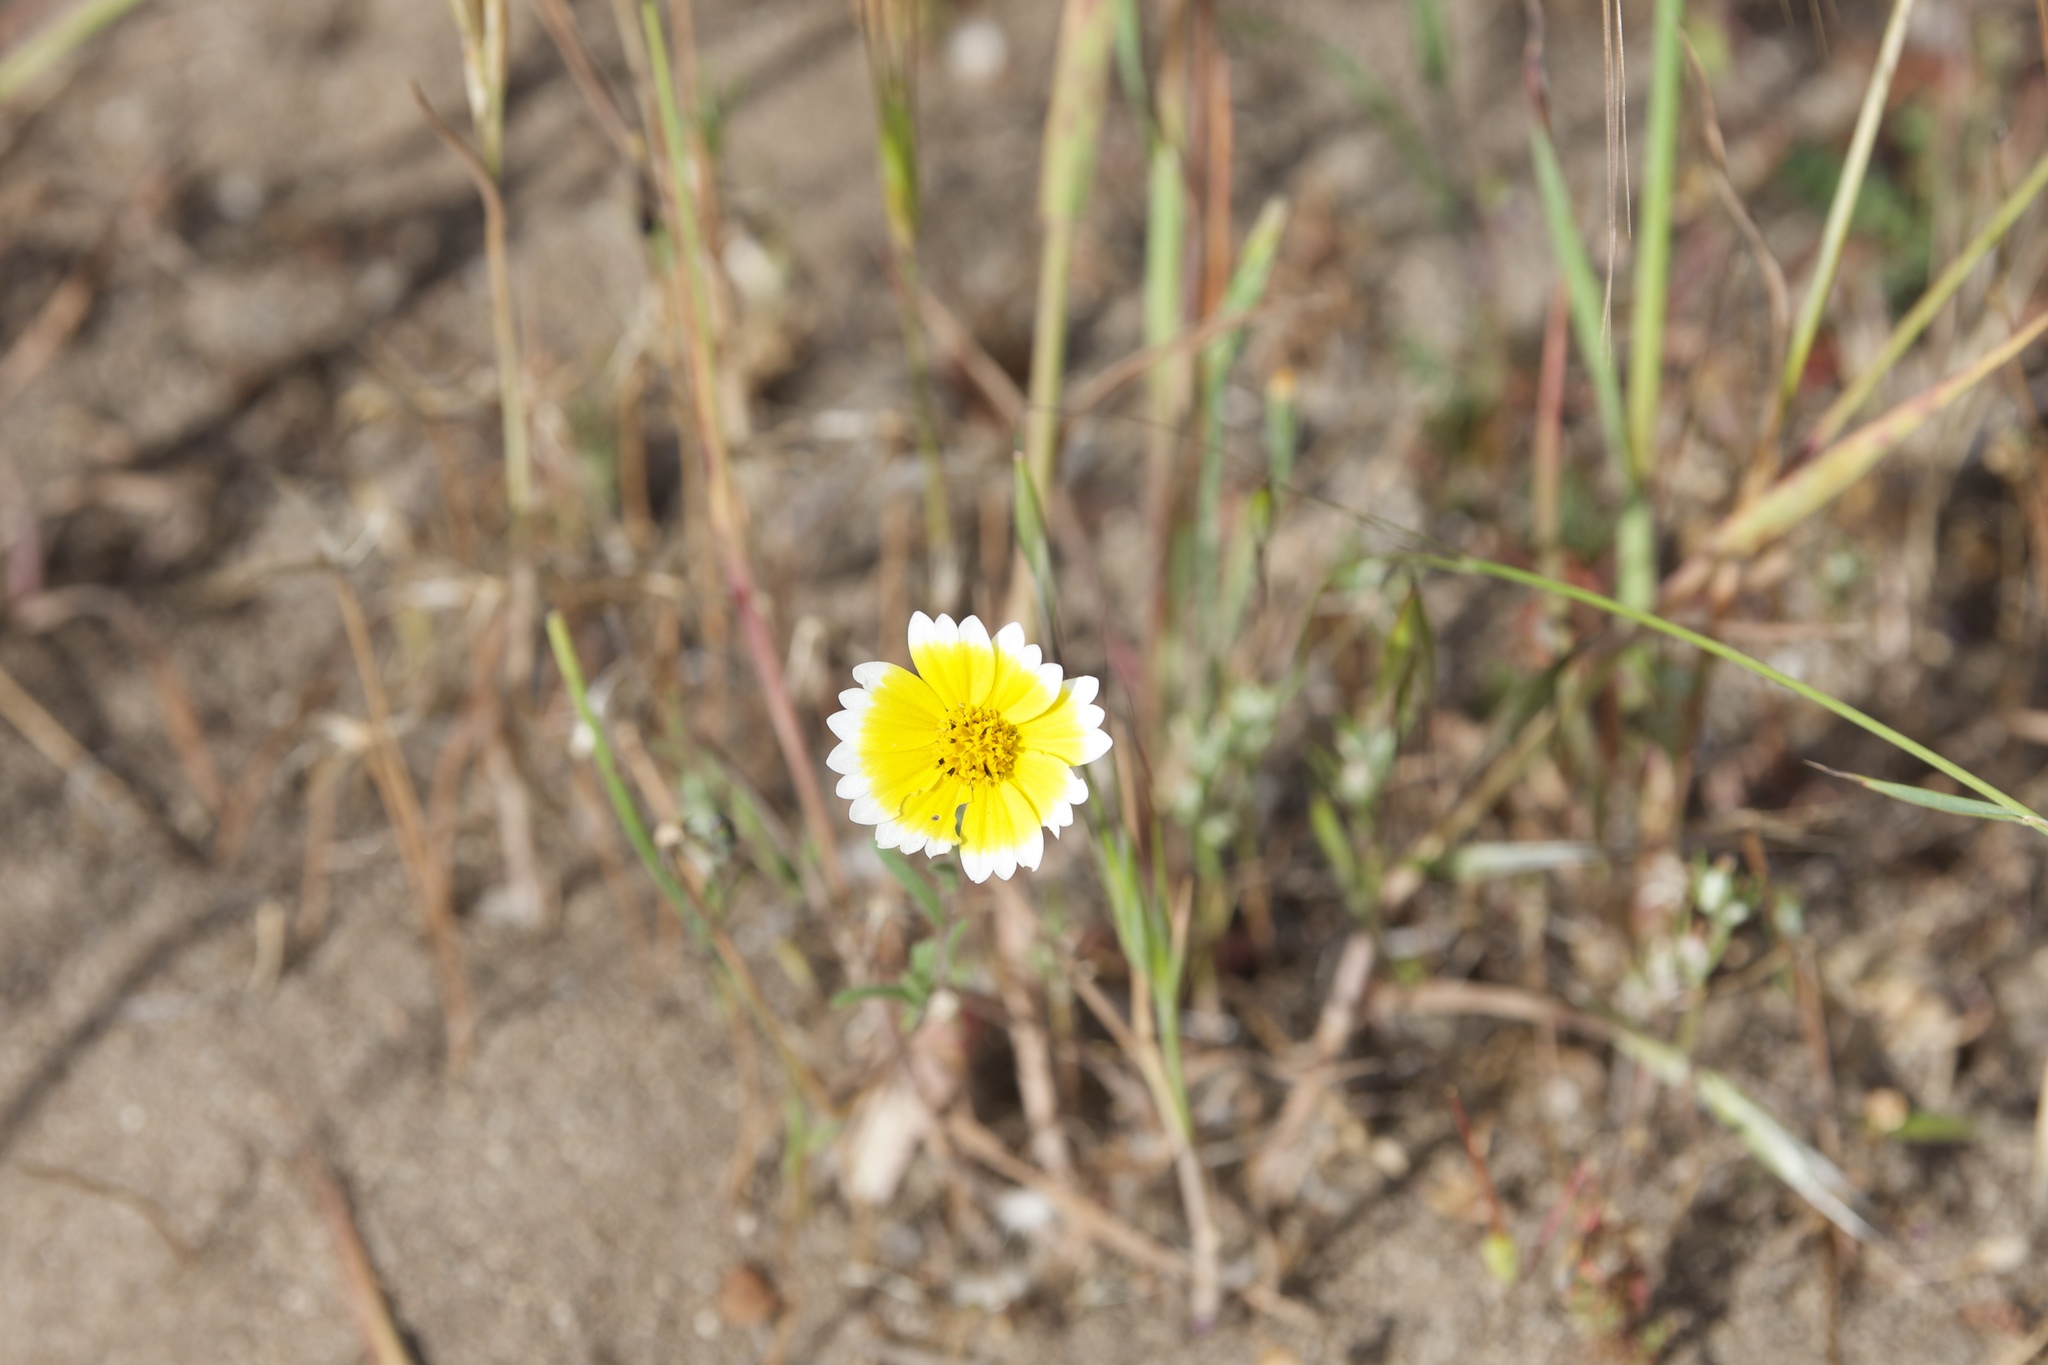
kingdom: Plantae
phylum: Tracheophyta
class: Magnoliopsida
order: Asterales
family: Asteraceae
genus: Layia
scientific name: Layia platyglossa
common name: Tidy-tips
